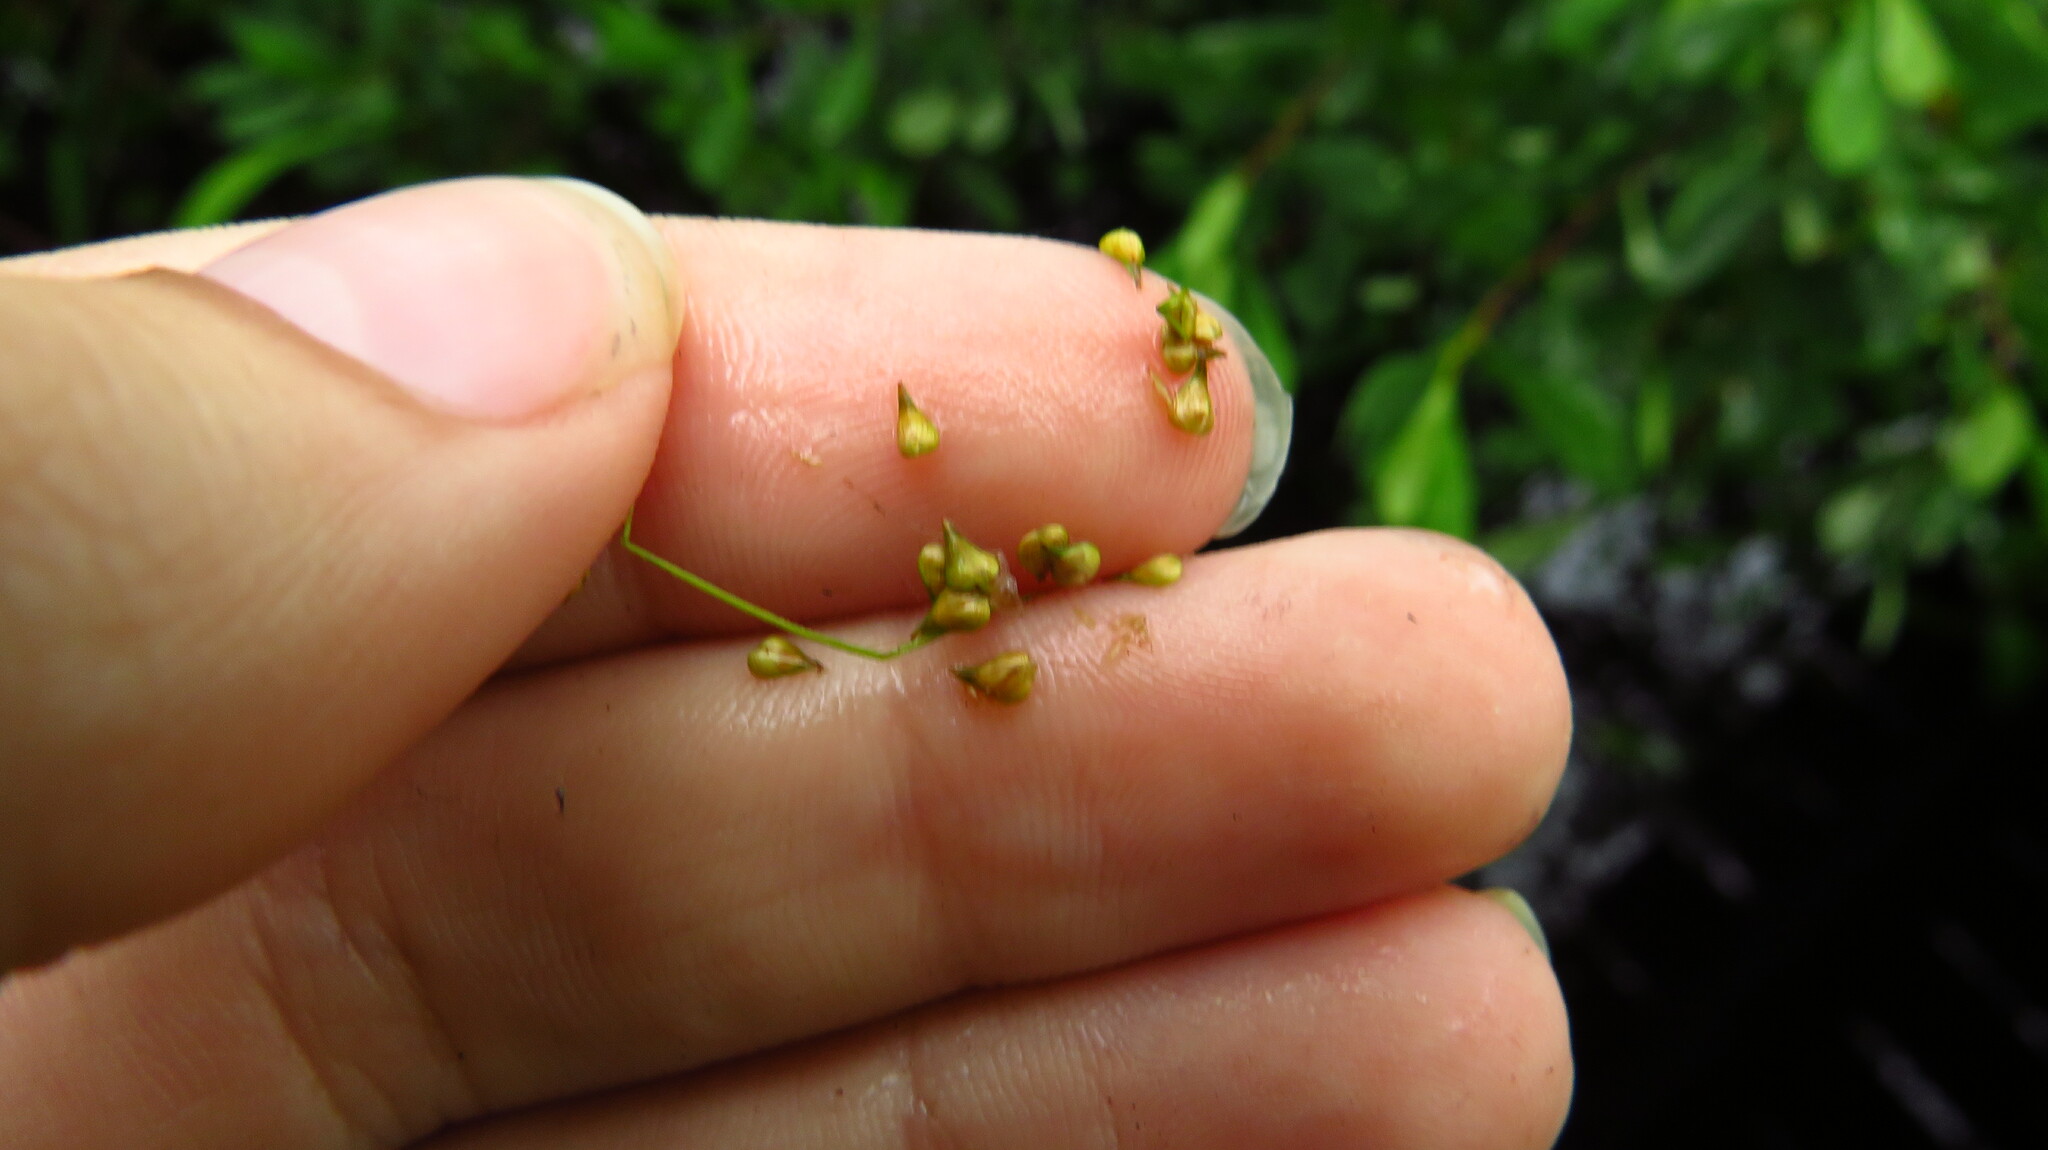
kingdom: Plantae
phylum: Tracheophyta
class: Liliopsida
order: Poales
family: Cyperaceae
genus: Carex
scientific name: Carex atlantica
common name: Atlantic sedge
